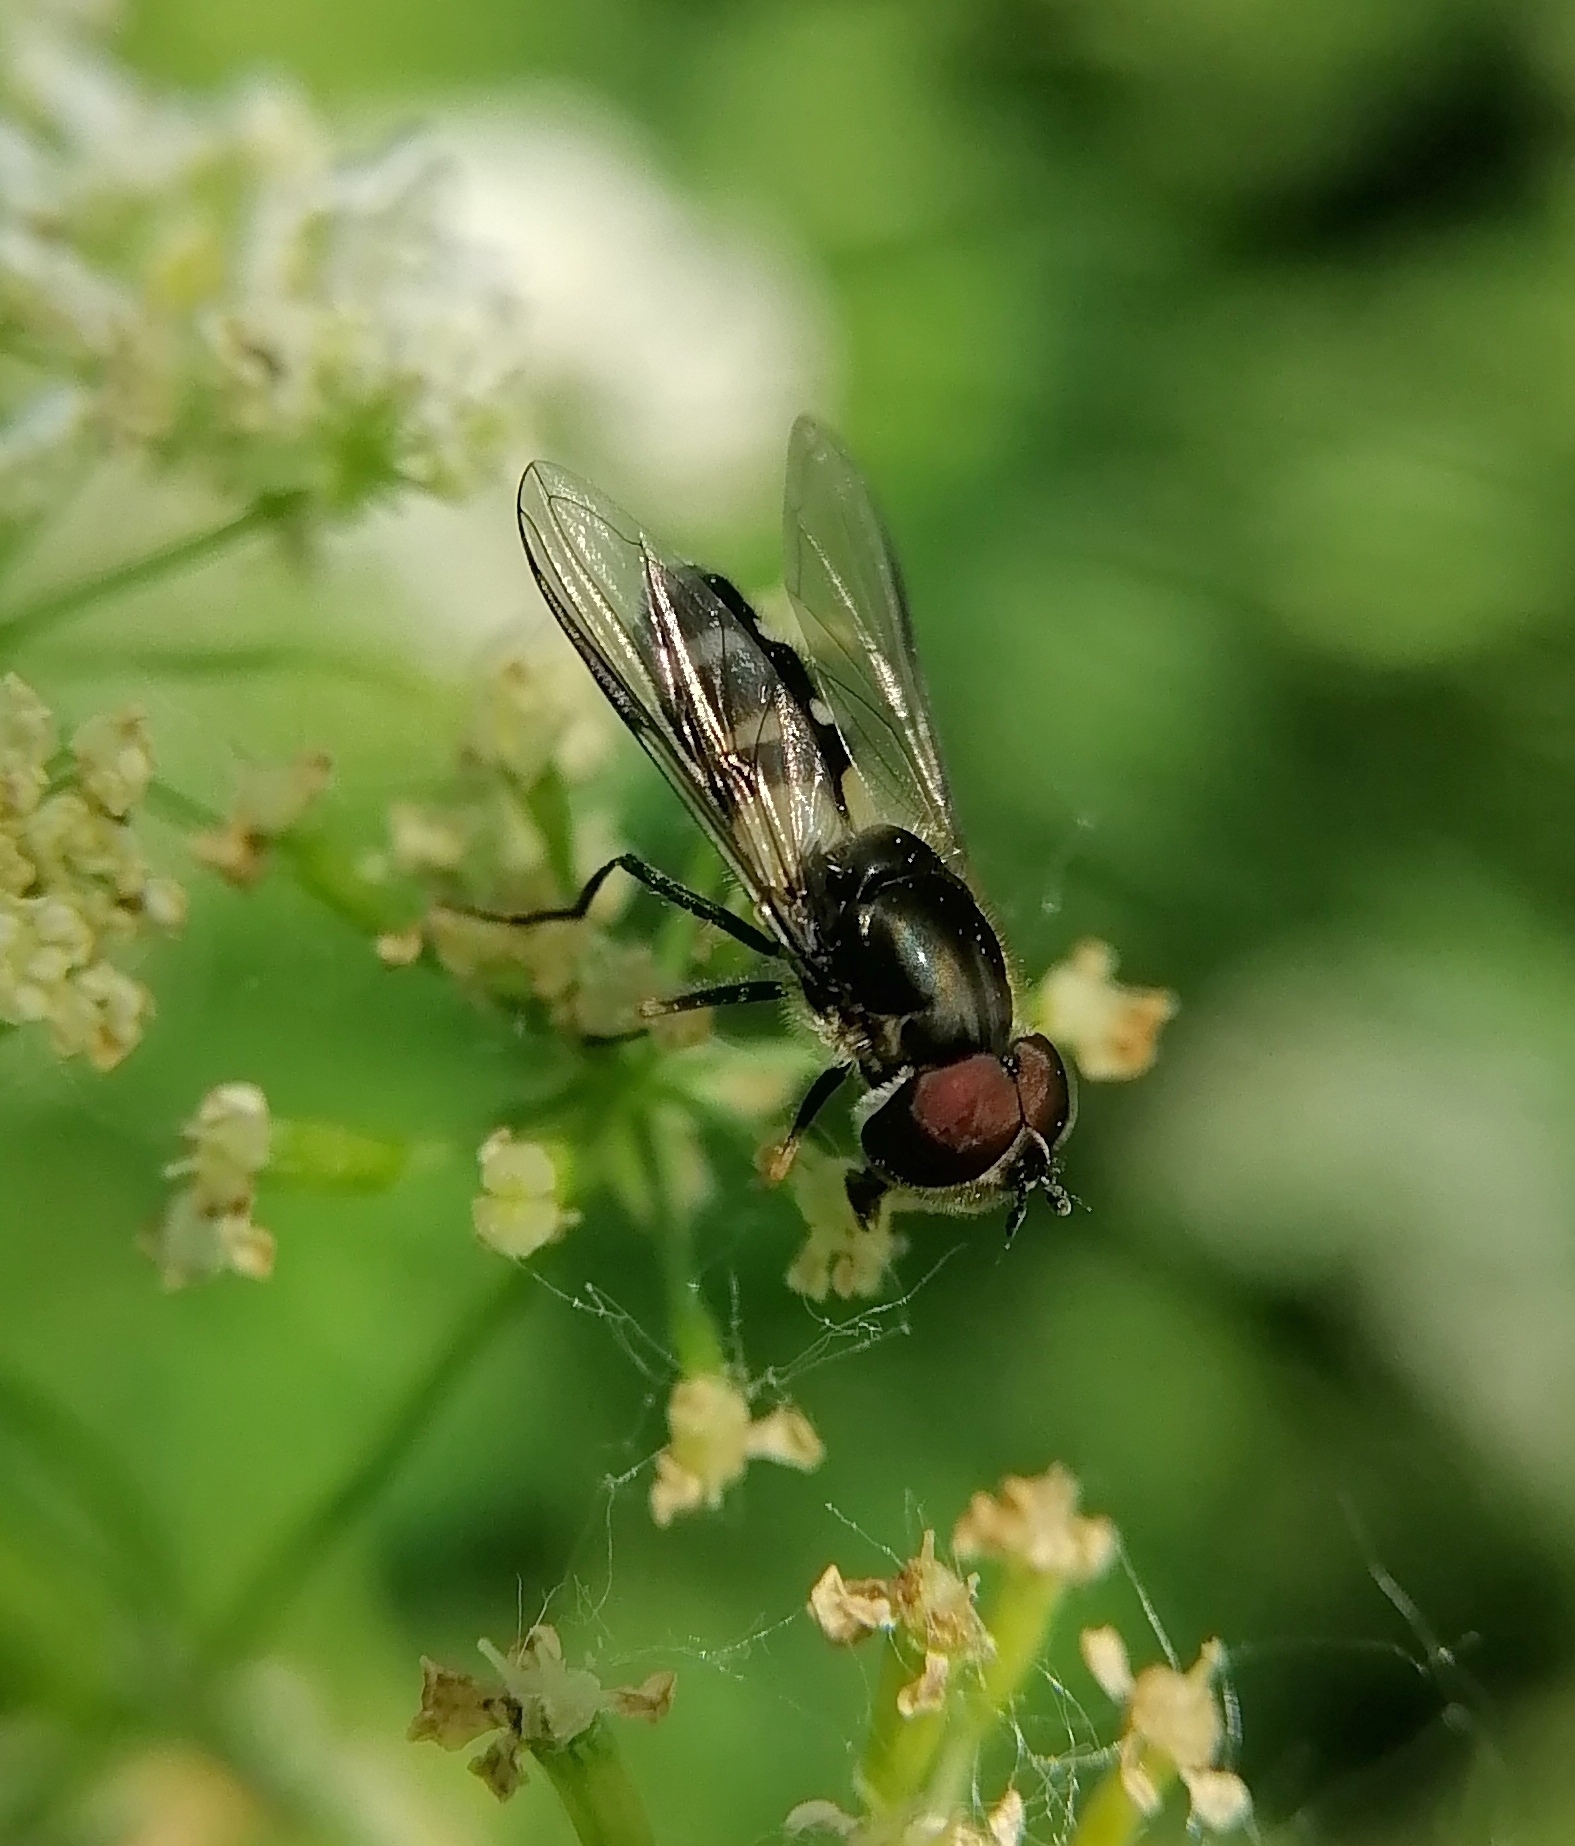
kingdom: Animalia
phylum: Arthropoda
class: Insecta
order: Diptera
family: Syrphidae
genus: Leucozona
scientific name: Leucozona laternaria
